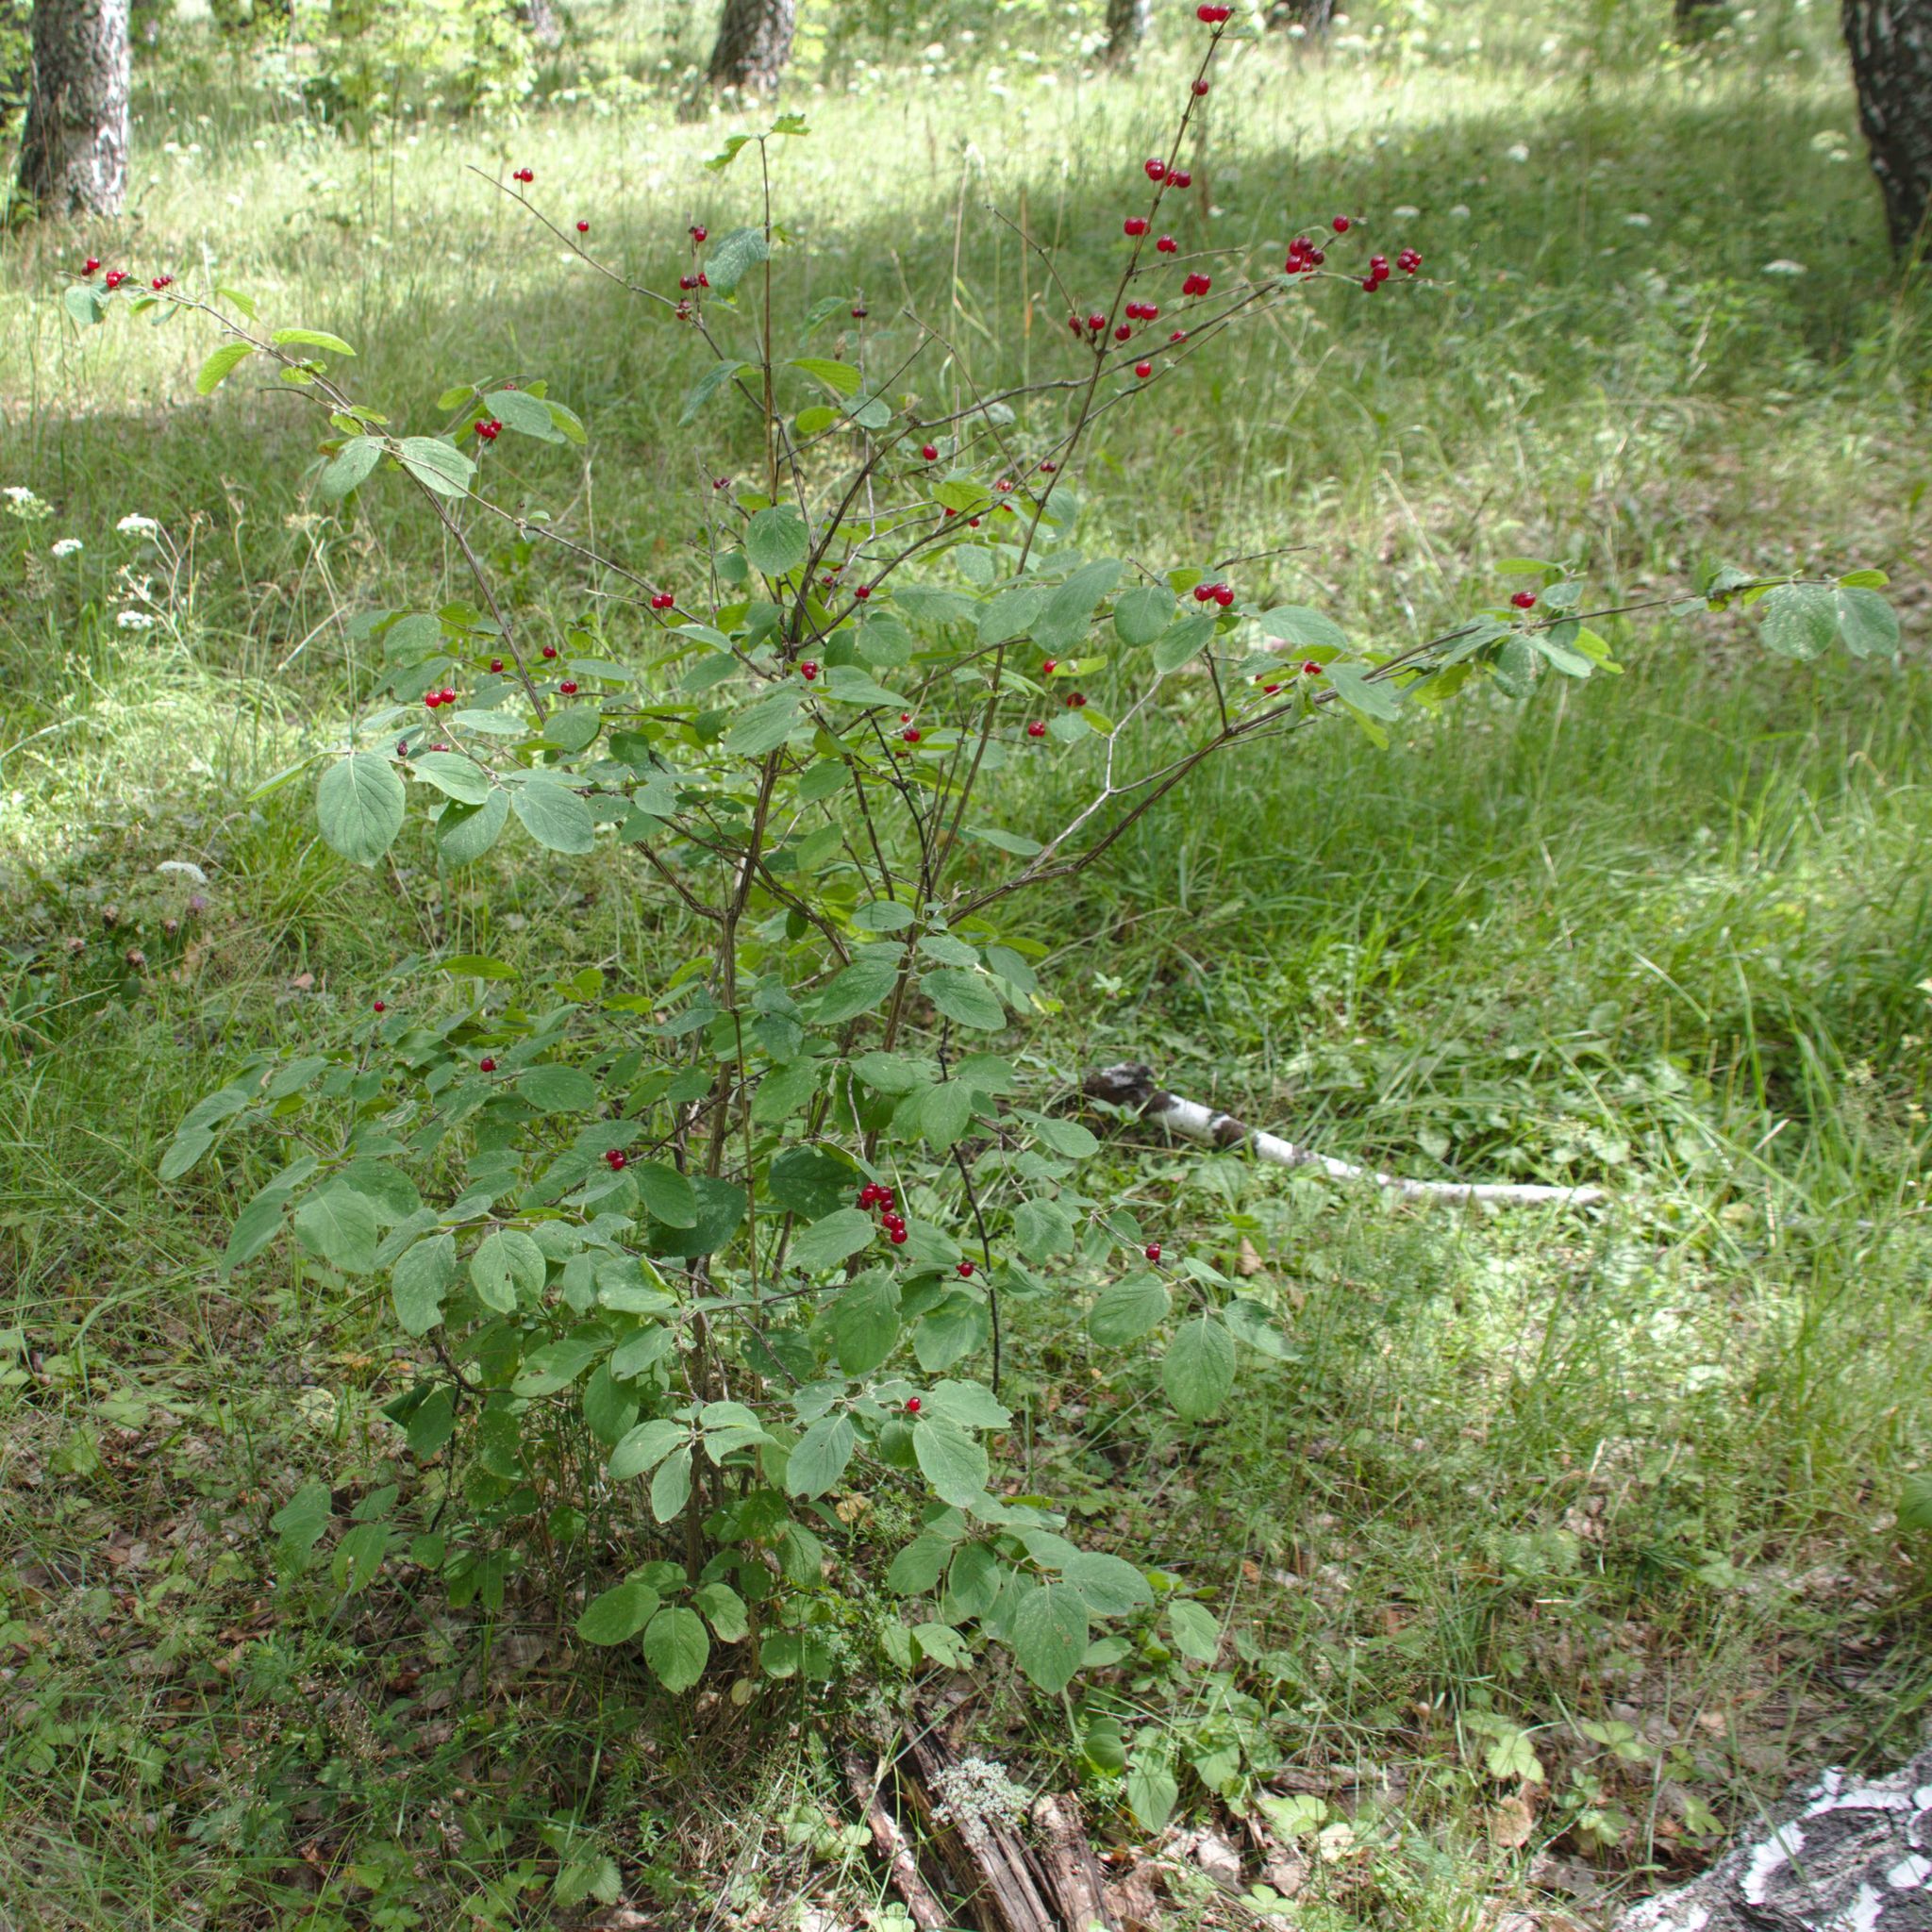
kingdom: Plantae
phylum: Tracheophyta
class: Magnoliopsida
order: Dipsacales
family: Caprifoliaceae
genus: Lonicera
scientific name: Lonicera xylosteum
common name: Fly honeysuckle
